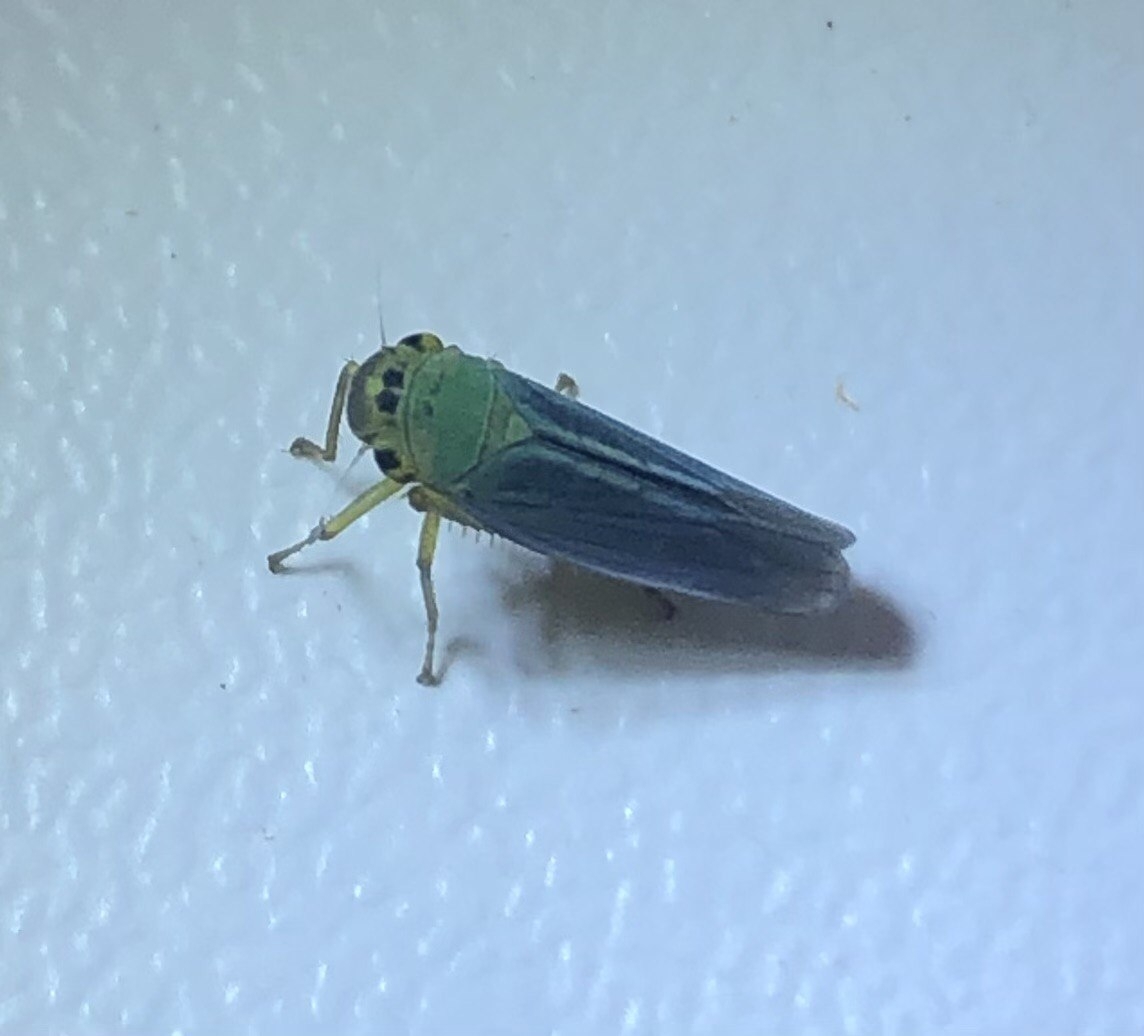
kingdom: Animalia
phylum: Arthropoda
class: Insecta
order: Hemiptera
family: Cicadellidae
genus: Cicadella
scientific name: Cicadella viridis
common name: Leafhopper
